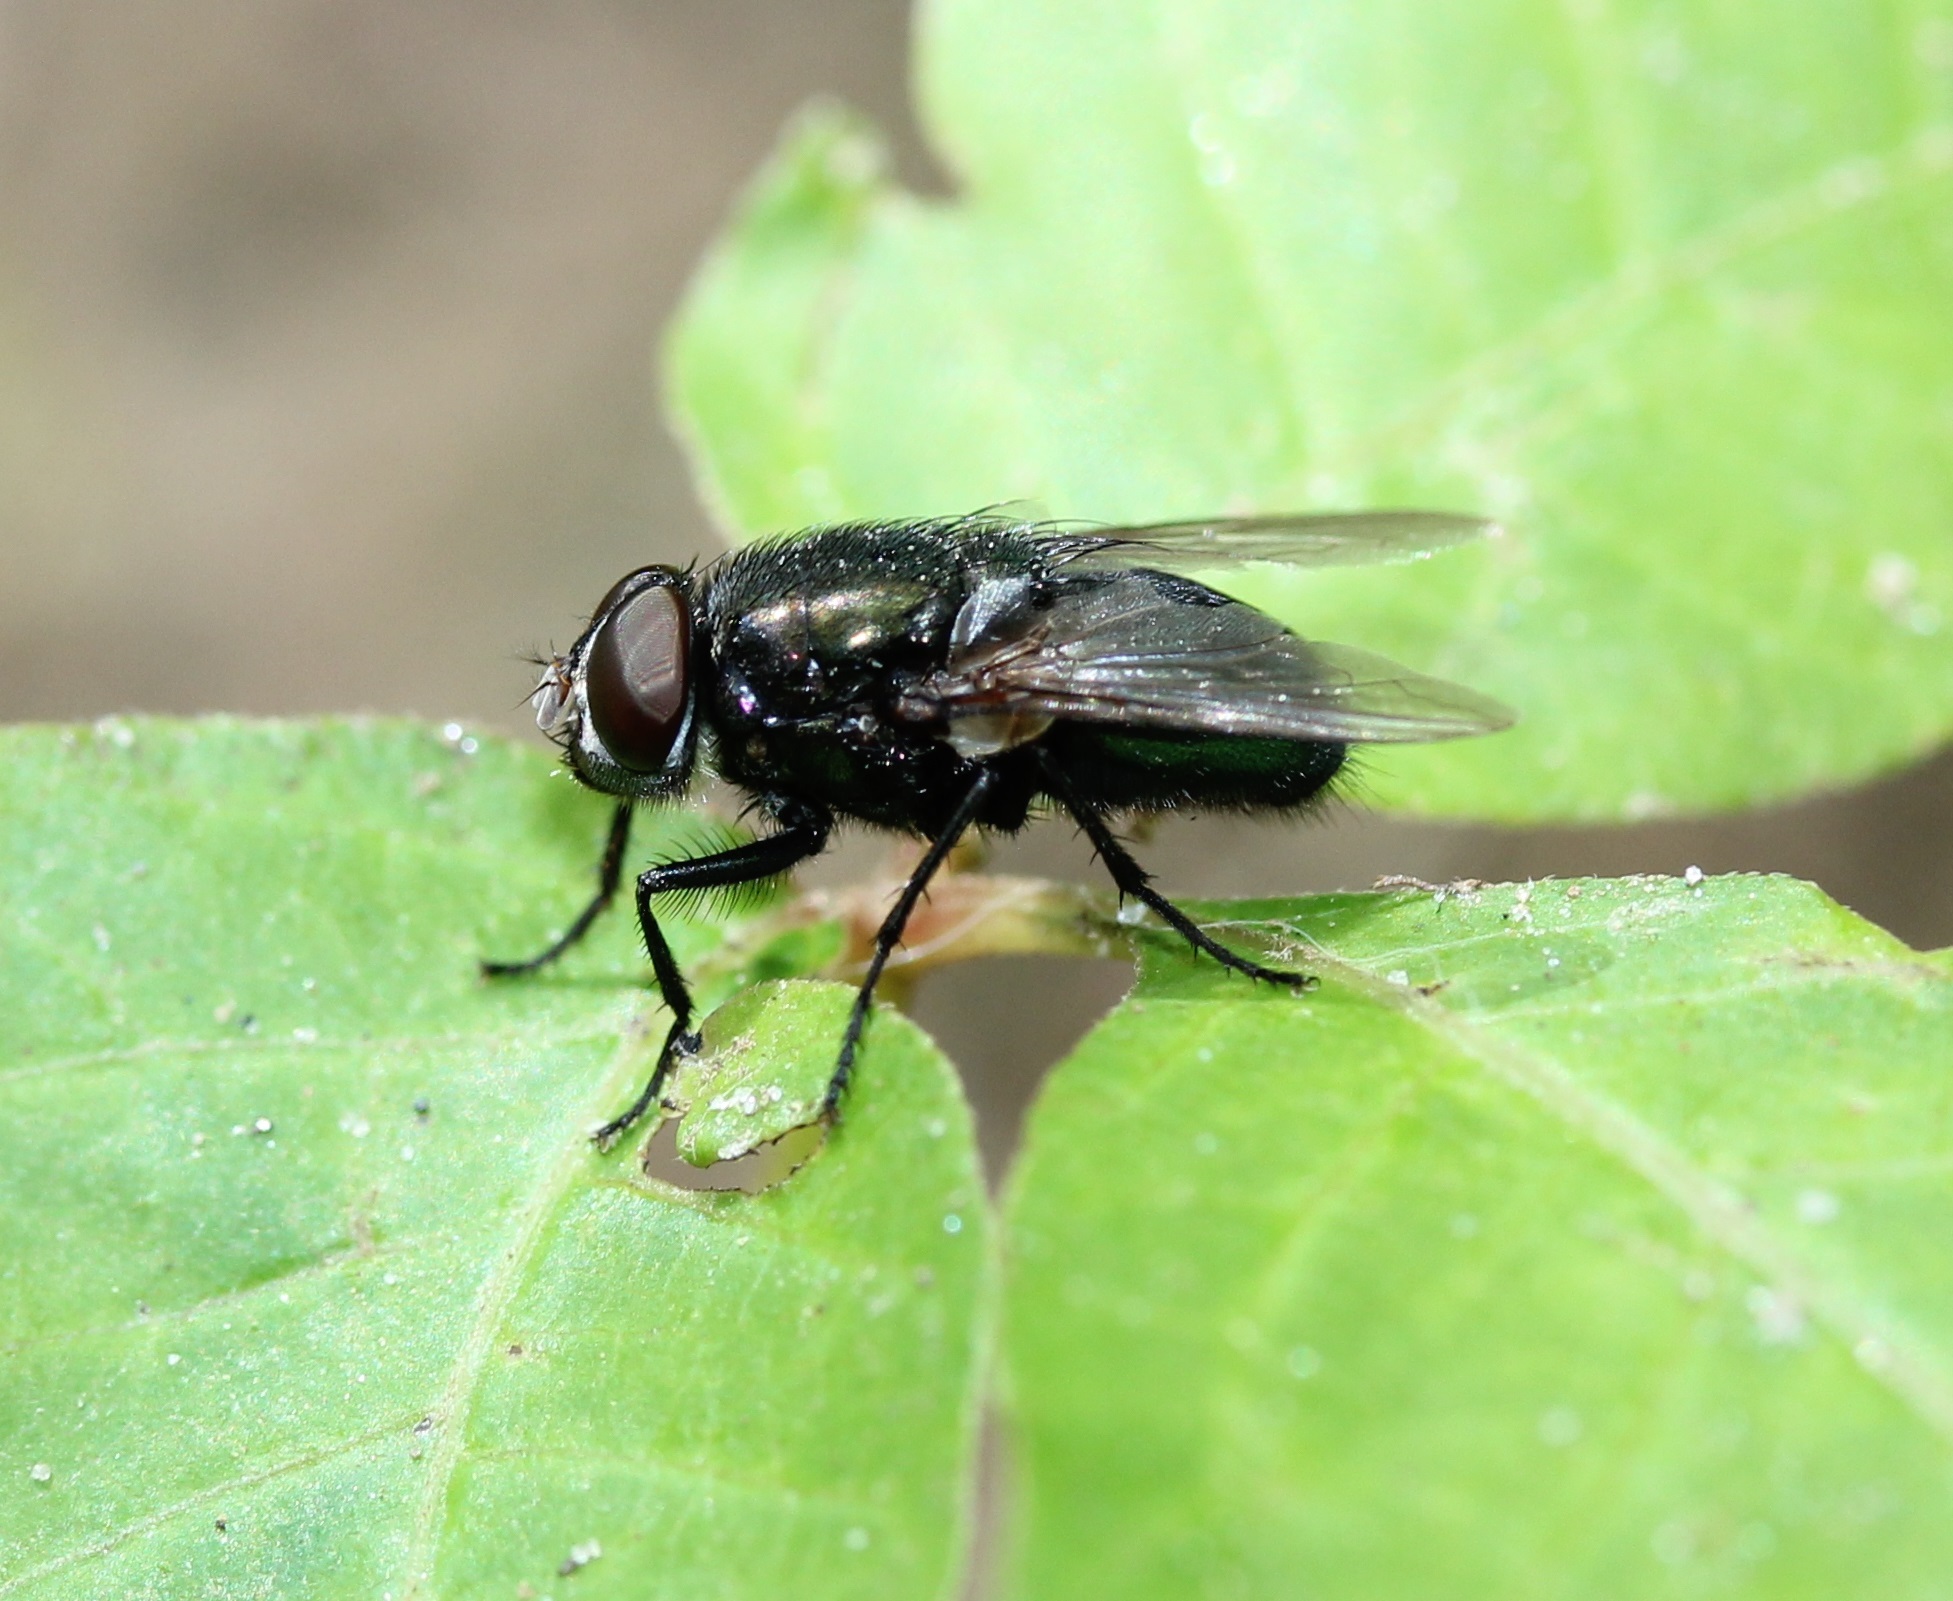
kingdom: Animalia
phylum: Arthropoda
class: Insecta
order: Diptera
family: Calliphoridae
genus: Phormia
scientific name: Phormia regina
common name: Black blow fly
